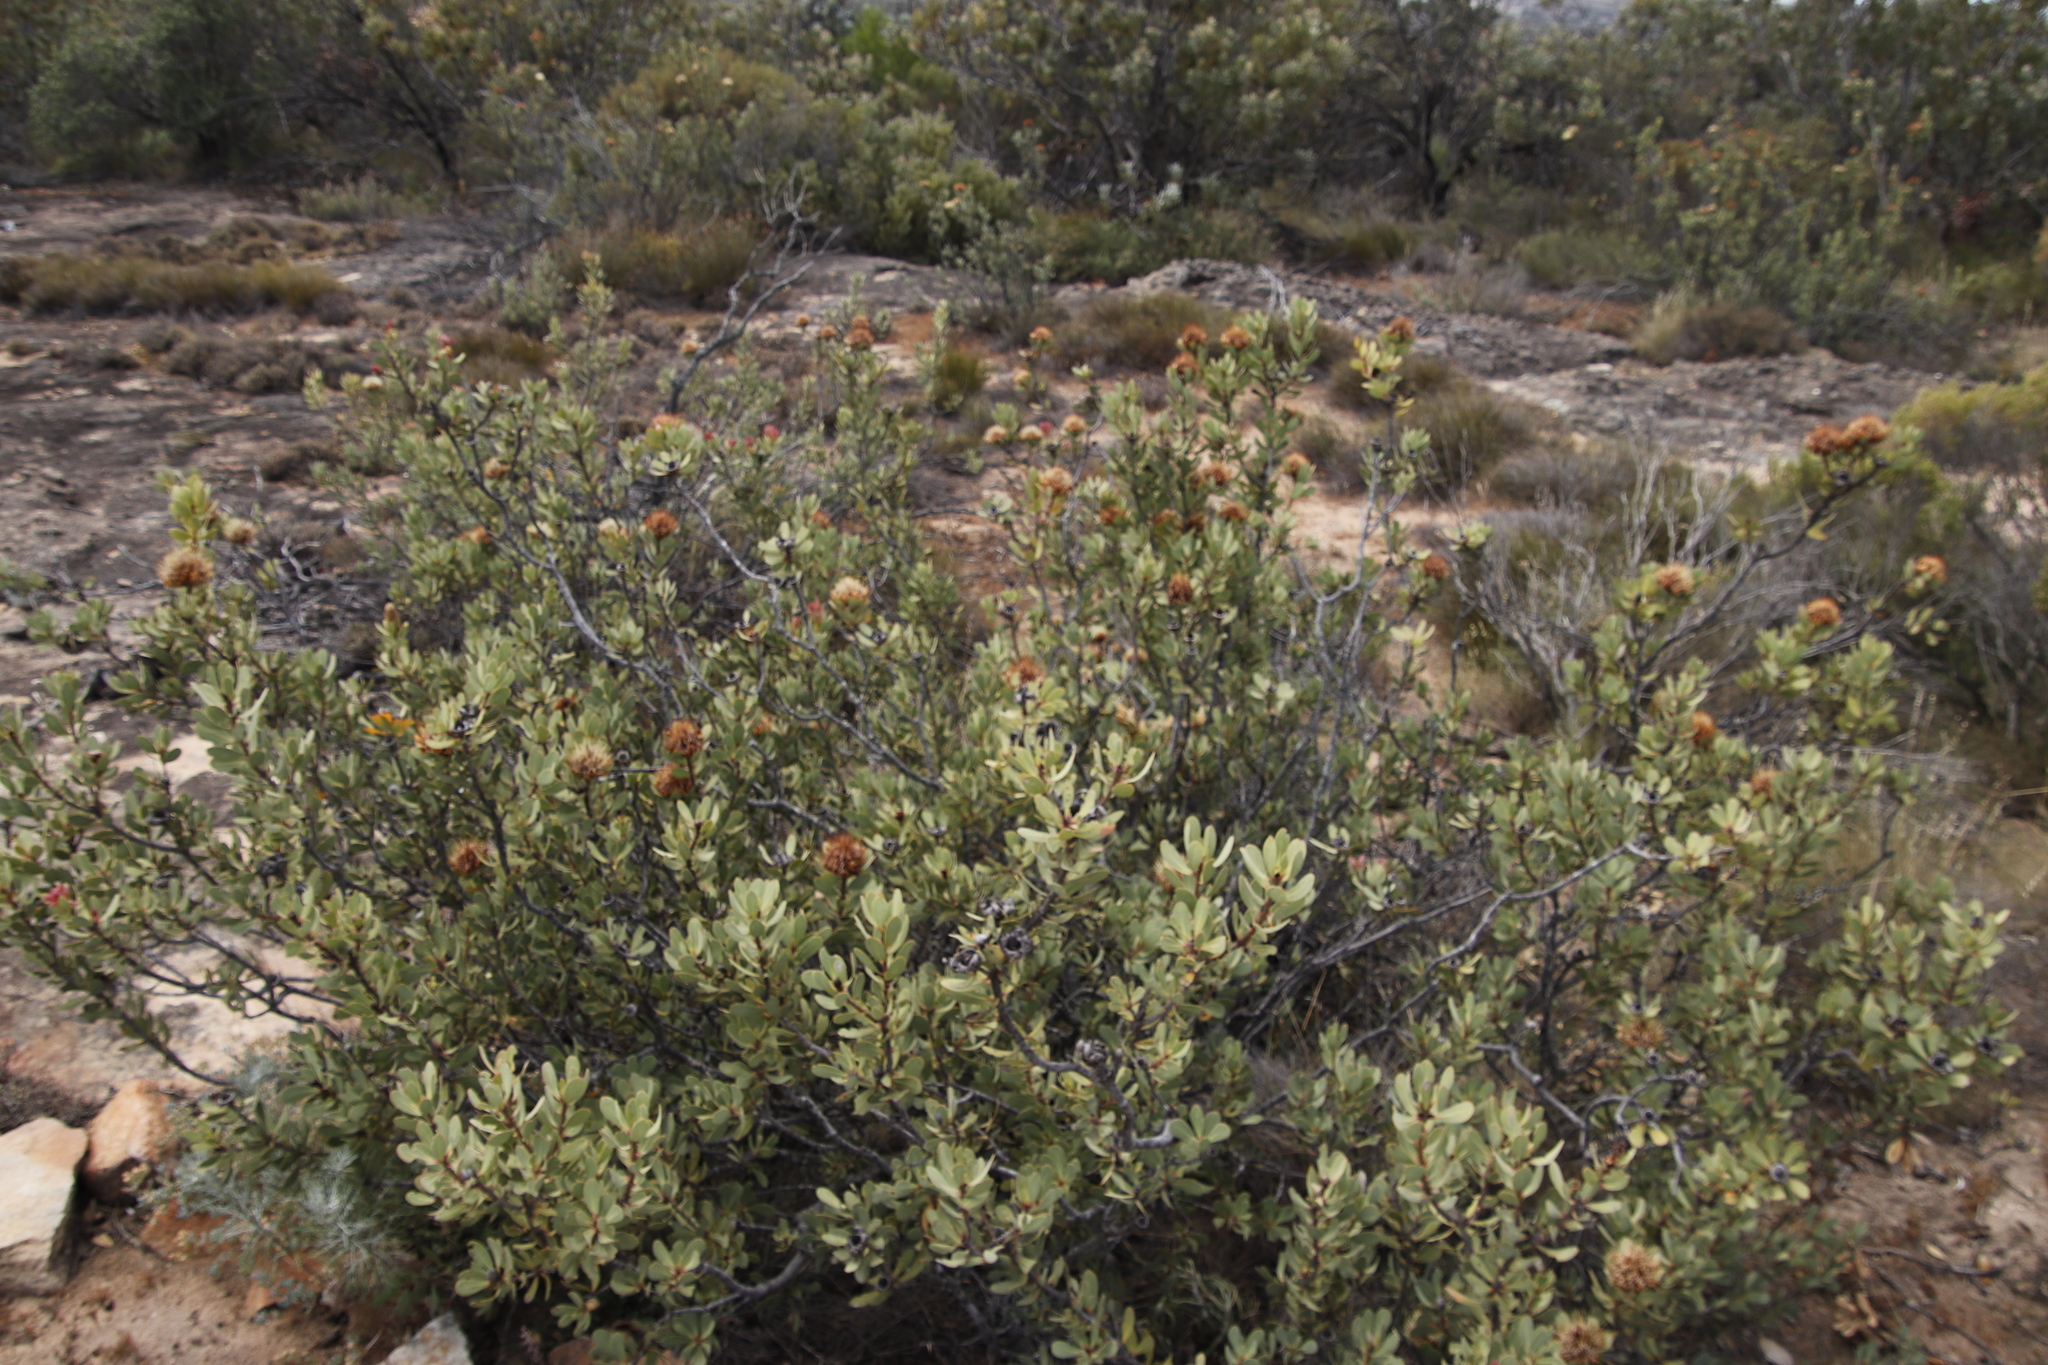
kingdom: Plantae
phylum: Tracheophyta
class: Magnoliopsida
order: Proteales
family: Proteaceae
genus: Protea
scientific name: Protea glabra
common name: Chestnut sugarbush
